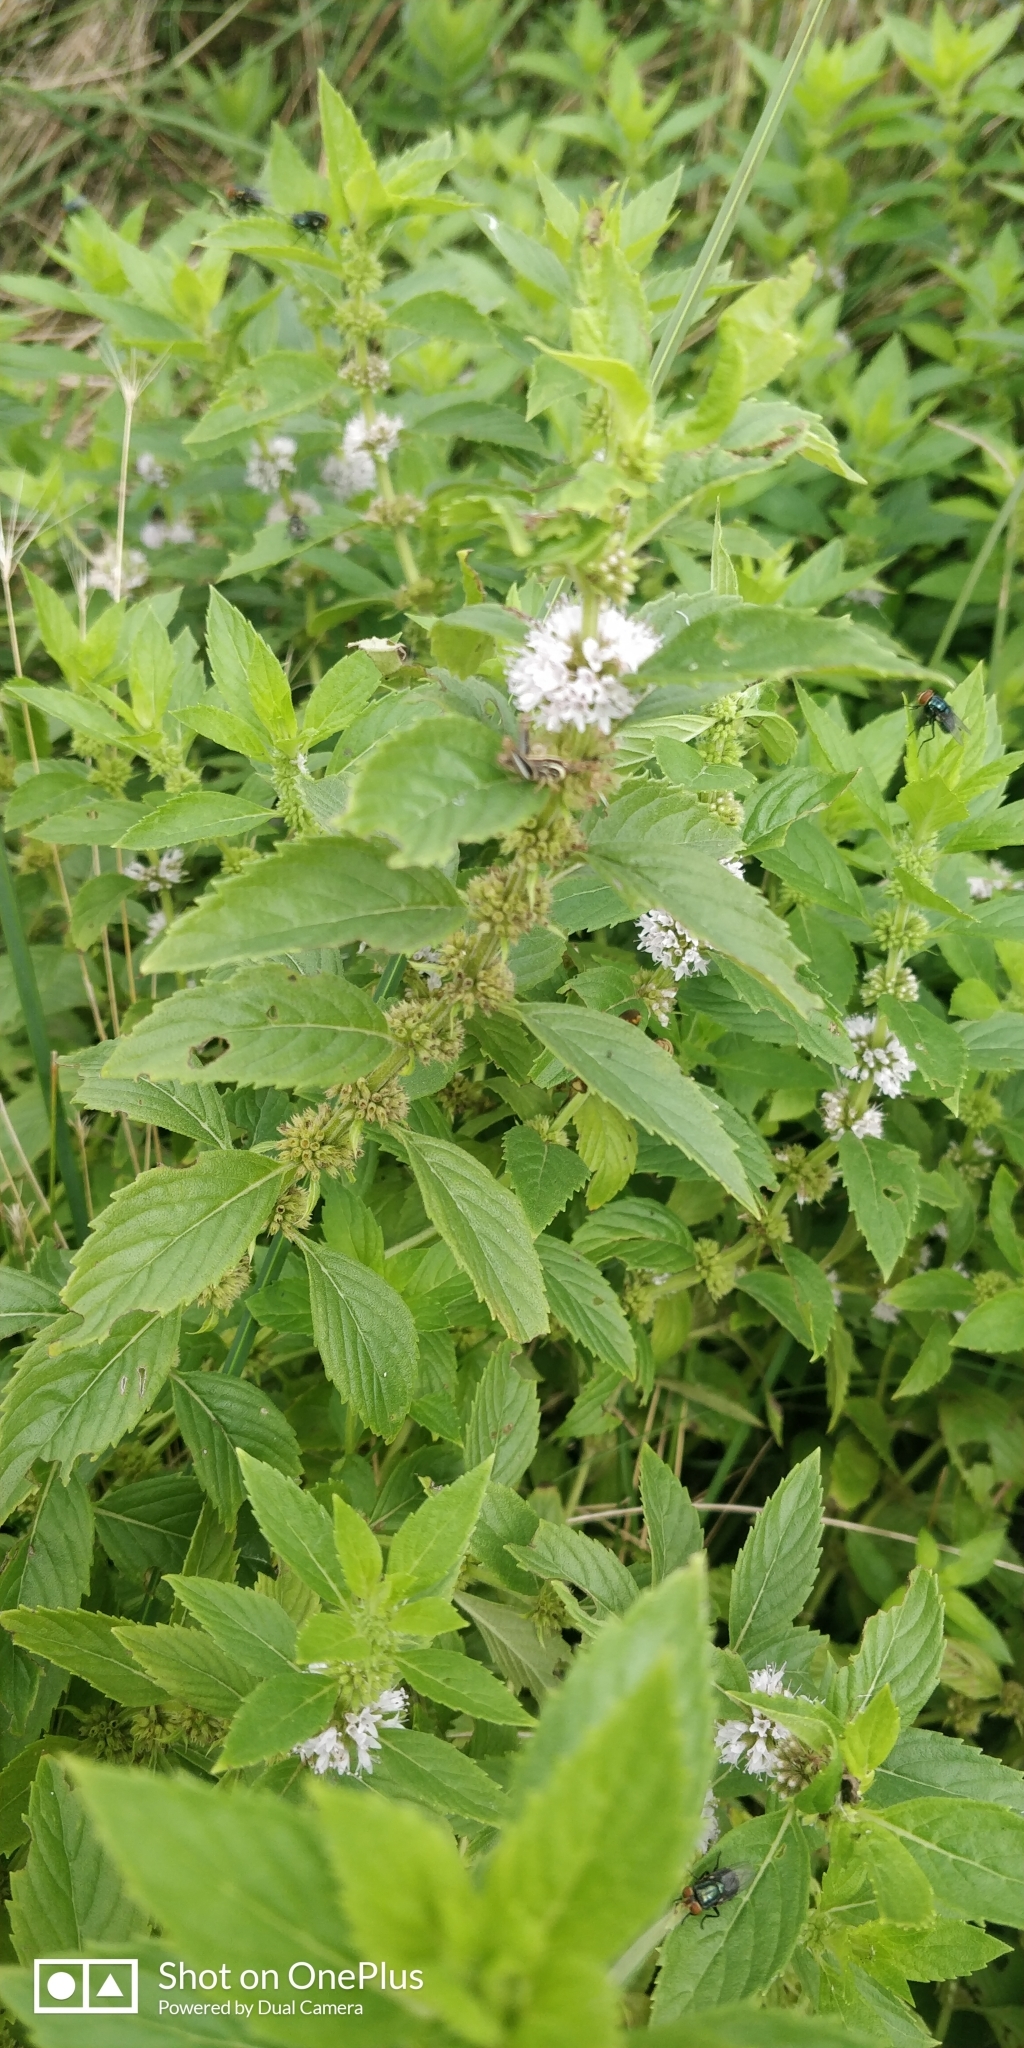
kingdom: Plantae
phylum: Tracheophyta
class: Magnoliopsida
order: Lamiales
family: Lamiaceae
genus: Mentha
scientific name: Mentha canadensis
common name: American corn mint
